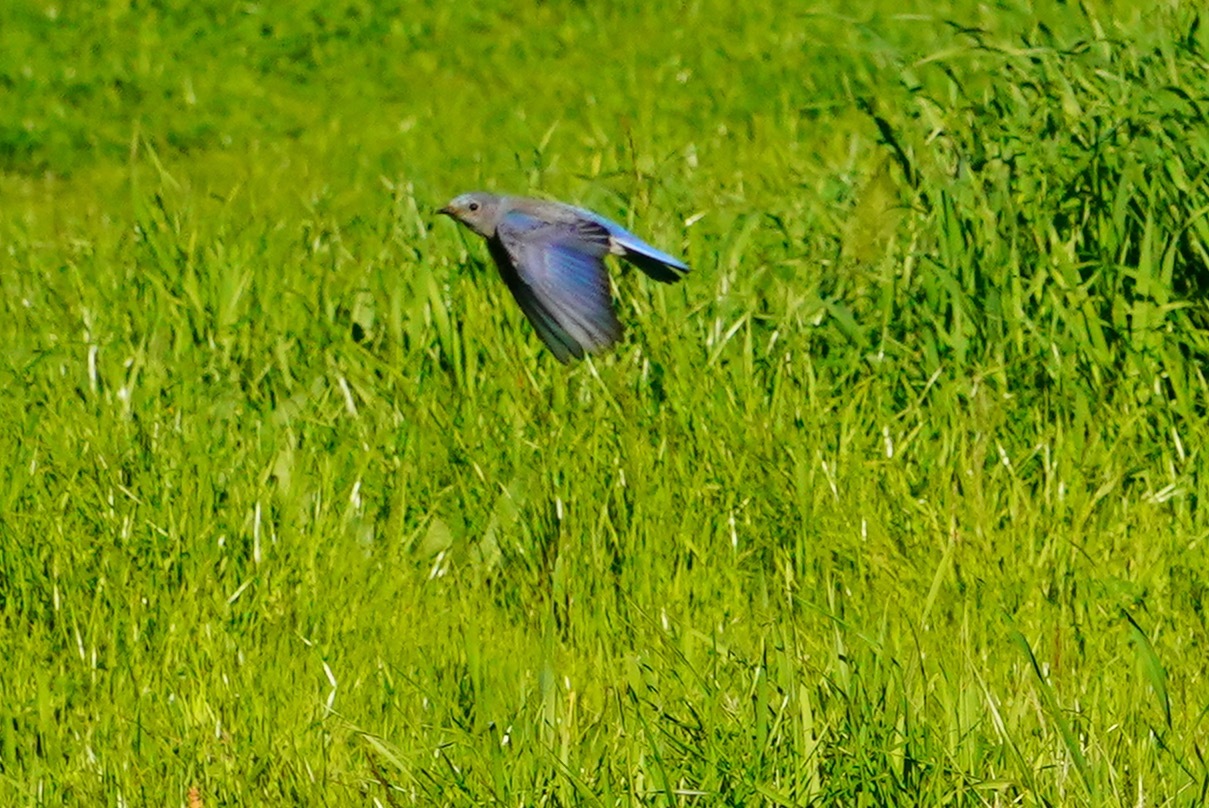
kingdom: Animalia
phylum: Chordata
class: Aves
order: Passeriformes
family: Turdidae
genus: Sialia
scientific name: Sialia mexicana
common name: Western bluebird
